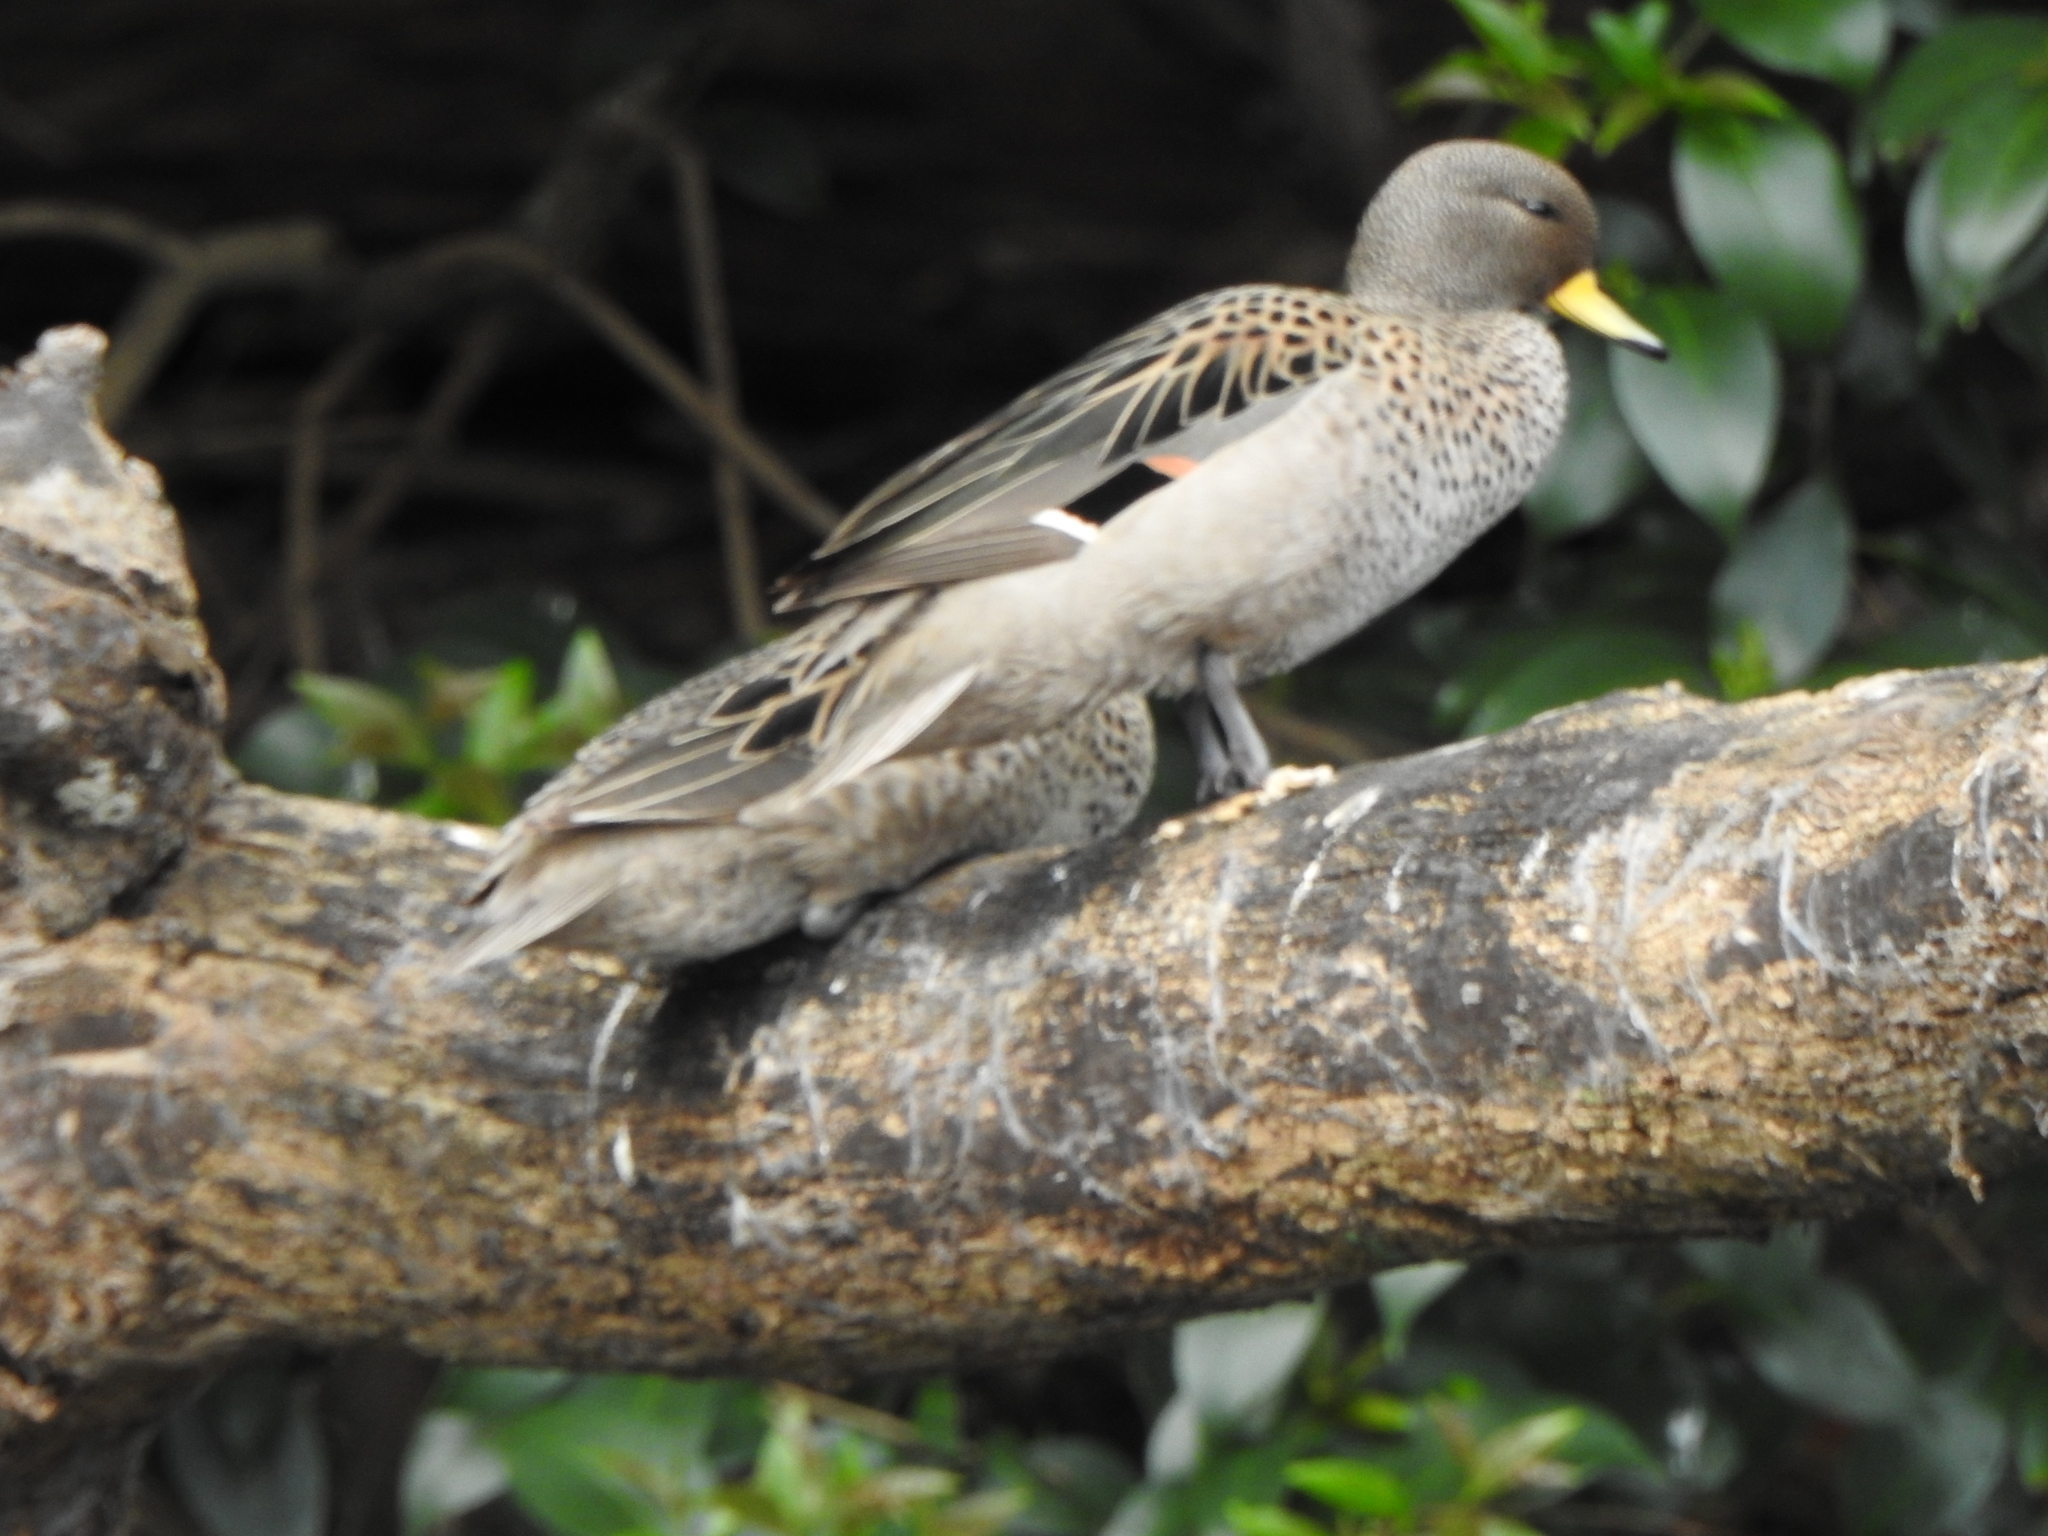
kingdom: Animalia
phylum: Chordata
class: Aves
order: Anseriformes
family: Anatidae
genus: Anas
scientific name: Anas flavirostris
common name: Yellow-billed teal
